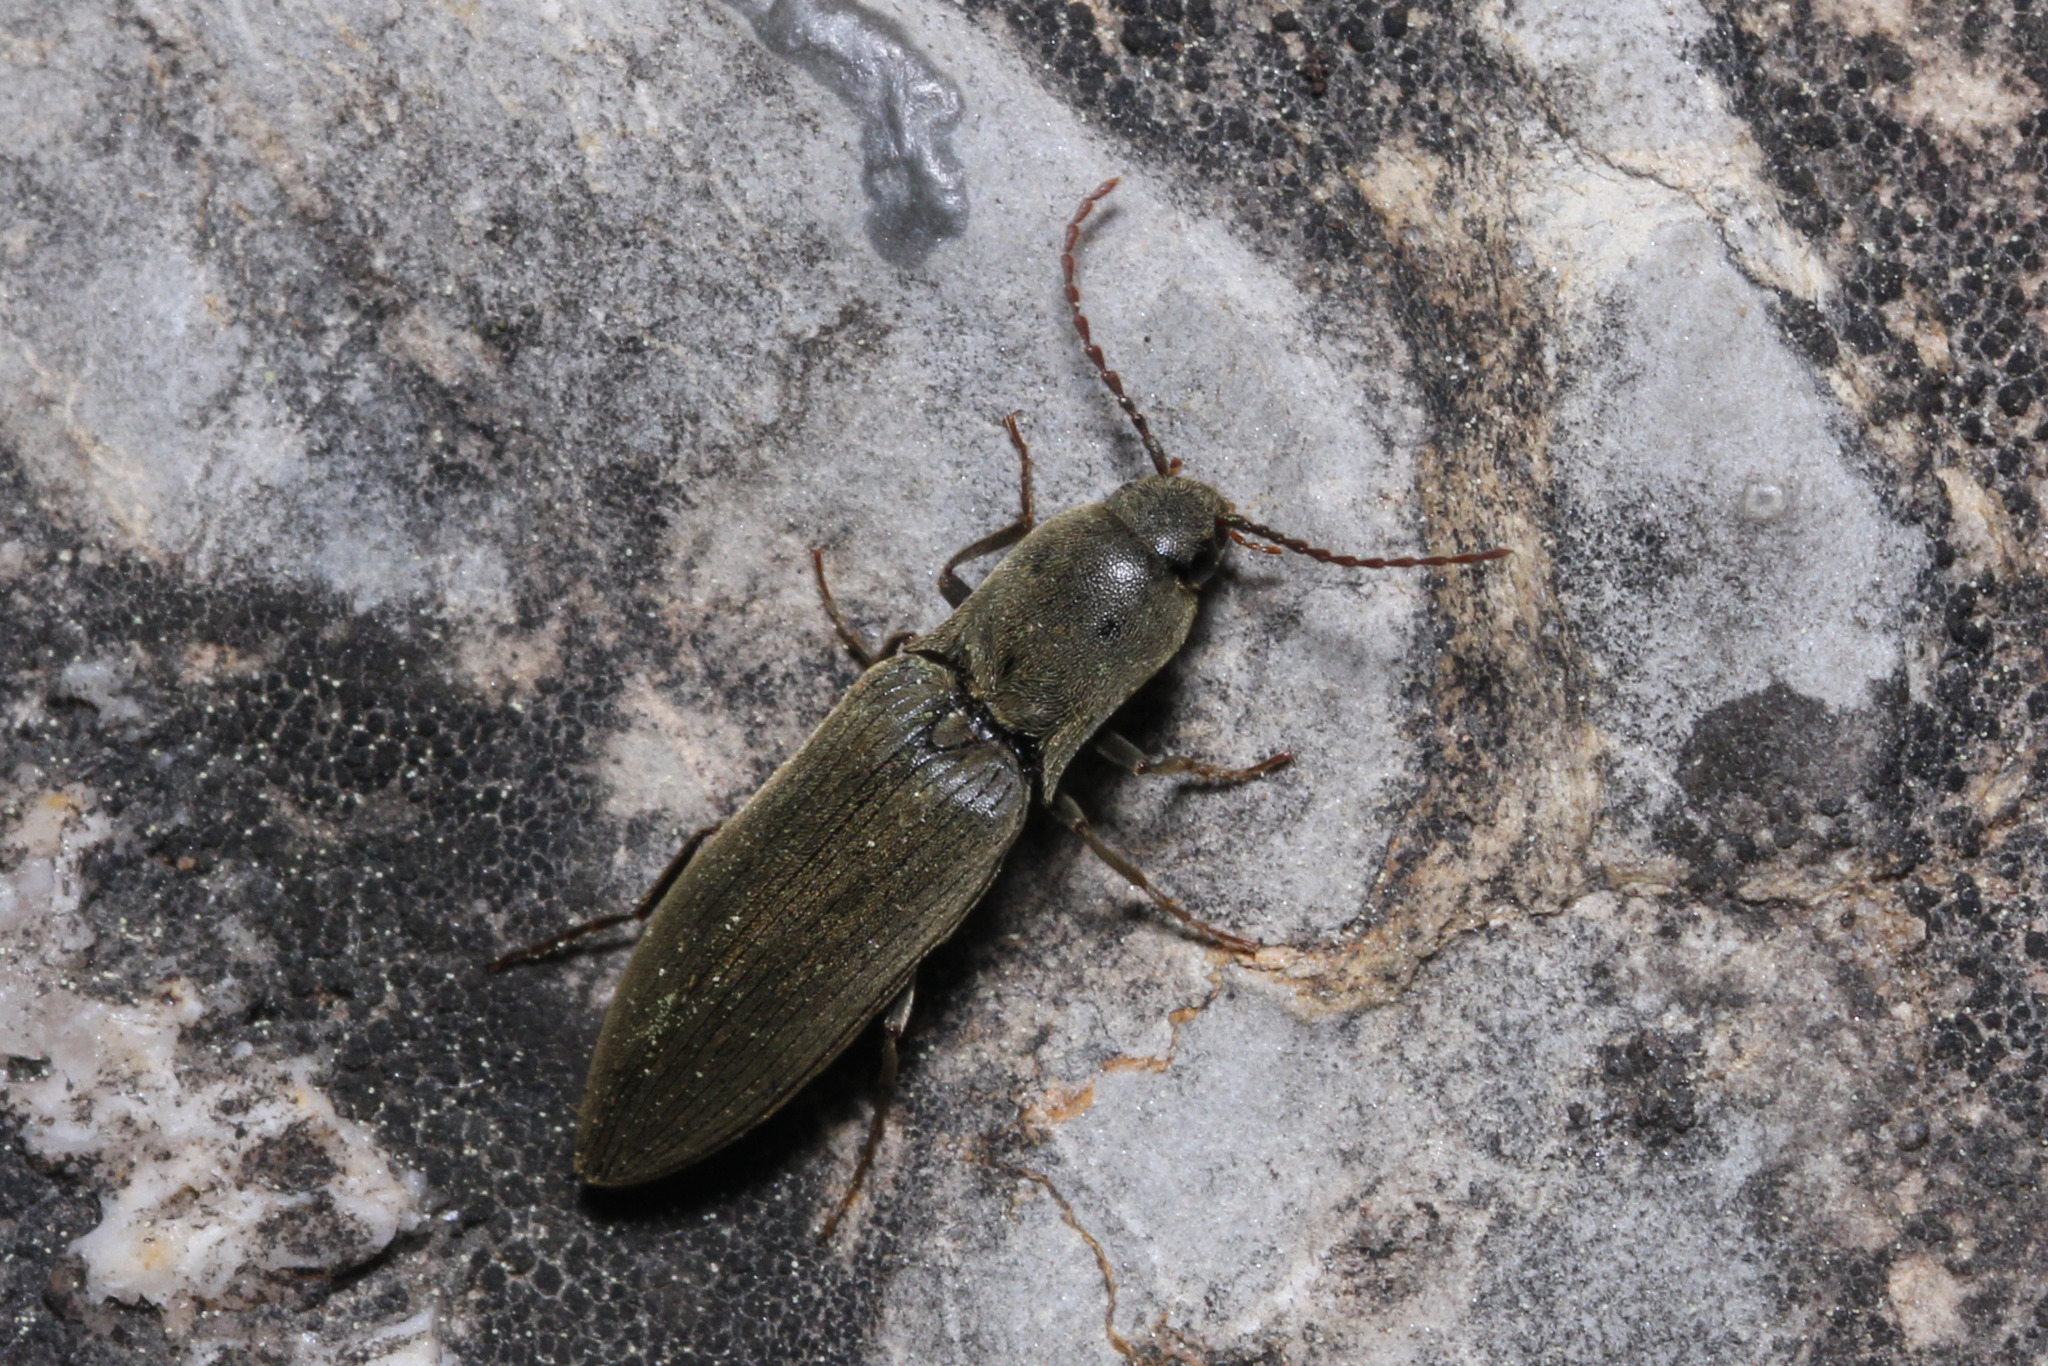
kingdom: Animalia
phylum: Arthropoda
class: Insecta
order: Coleoptera
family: Elateridae
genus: Agriotes
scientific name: Agriotes pilosellus
